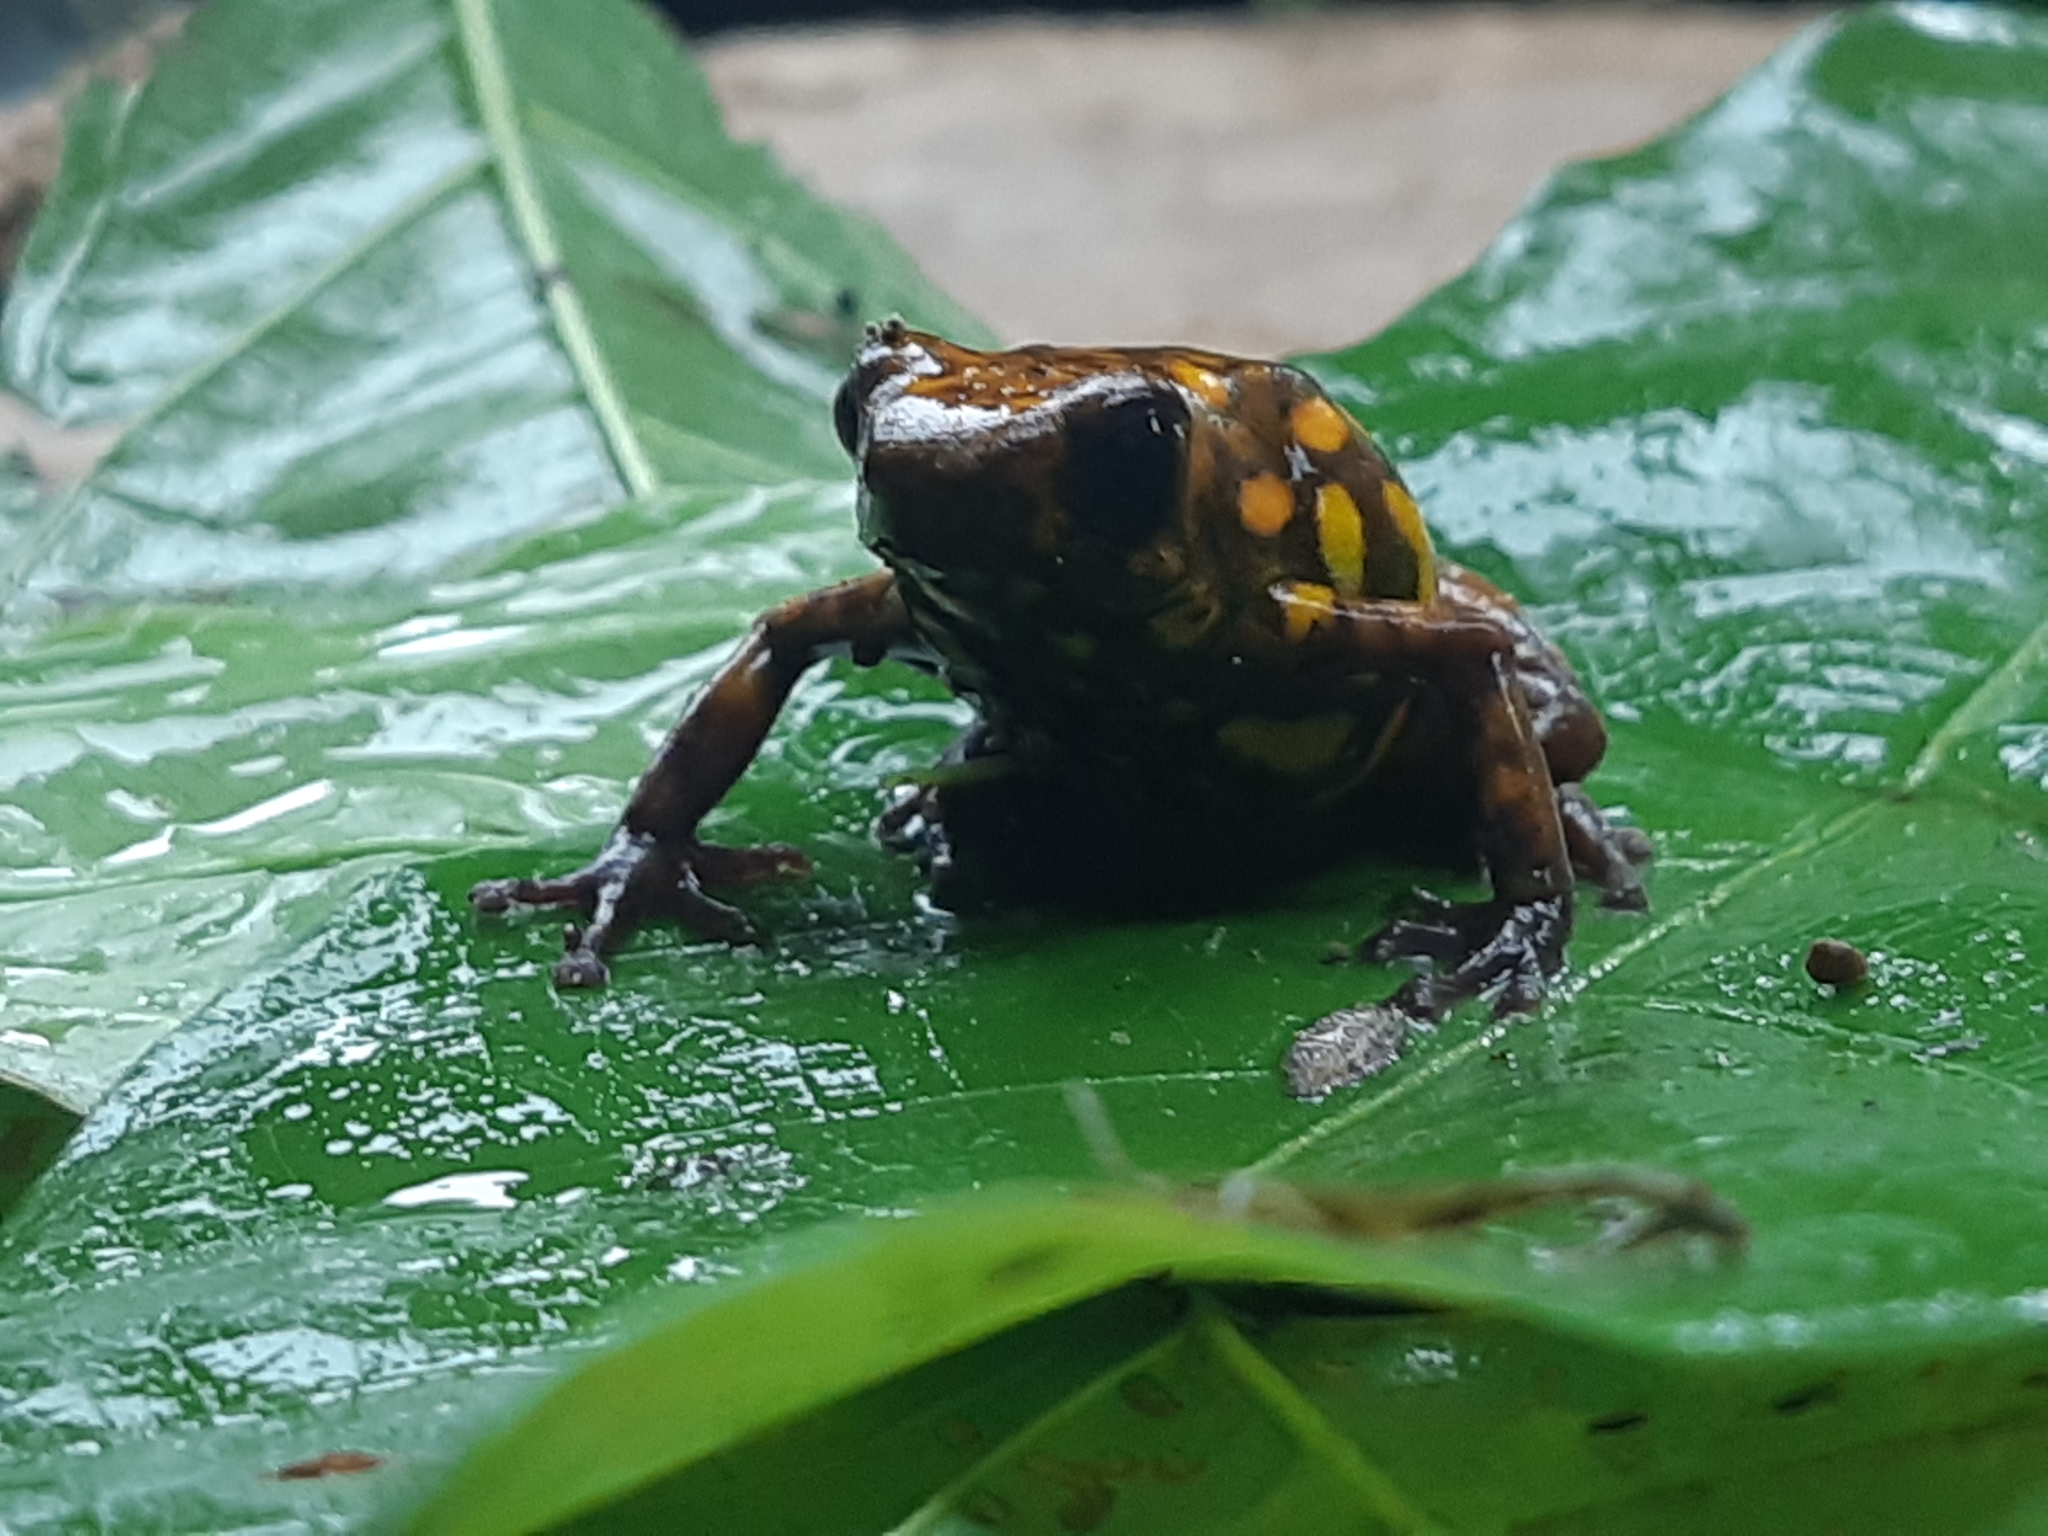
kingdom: Animalia
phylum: Chordata
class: Amphibia
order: Anura
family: Dendrobatidae
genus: Oophaga
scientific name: Oophaga sylvatica
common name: Little-devil poison frog
